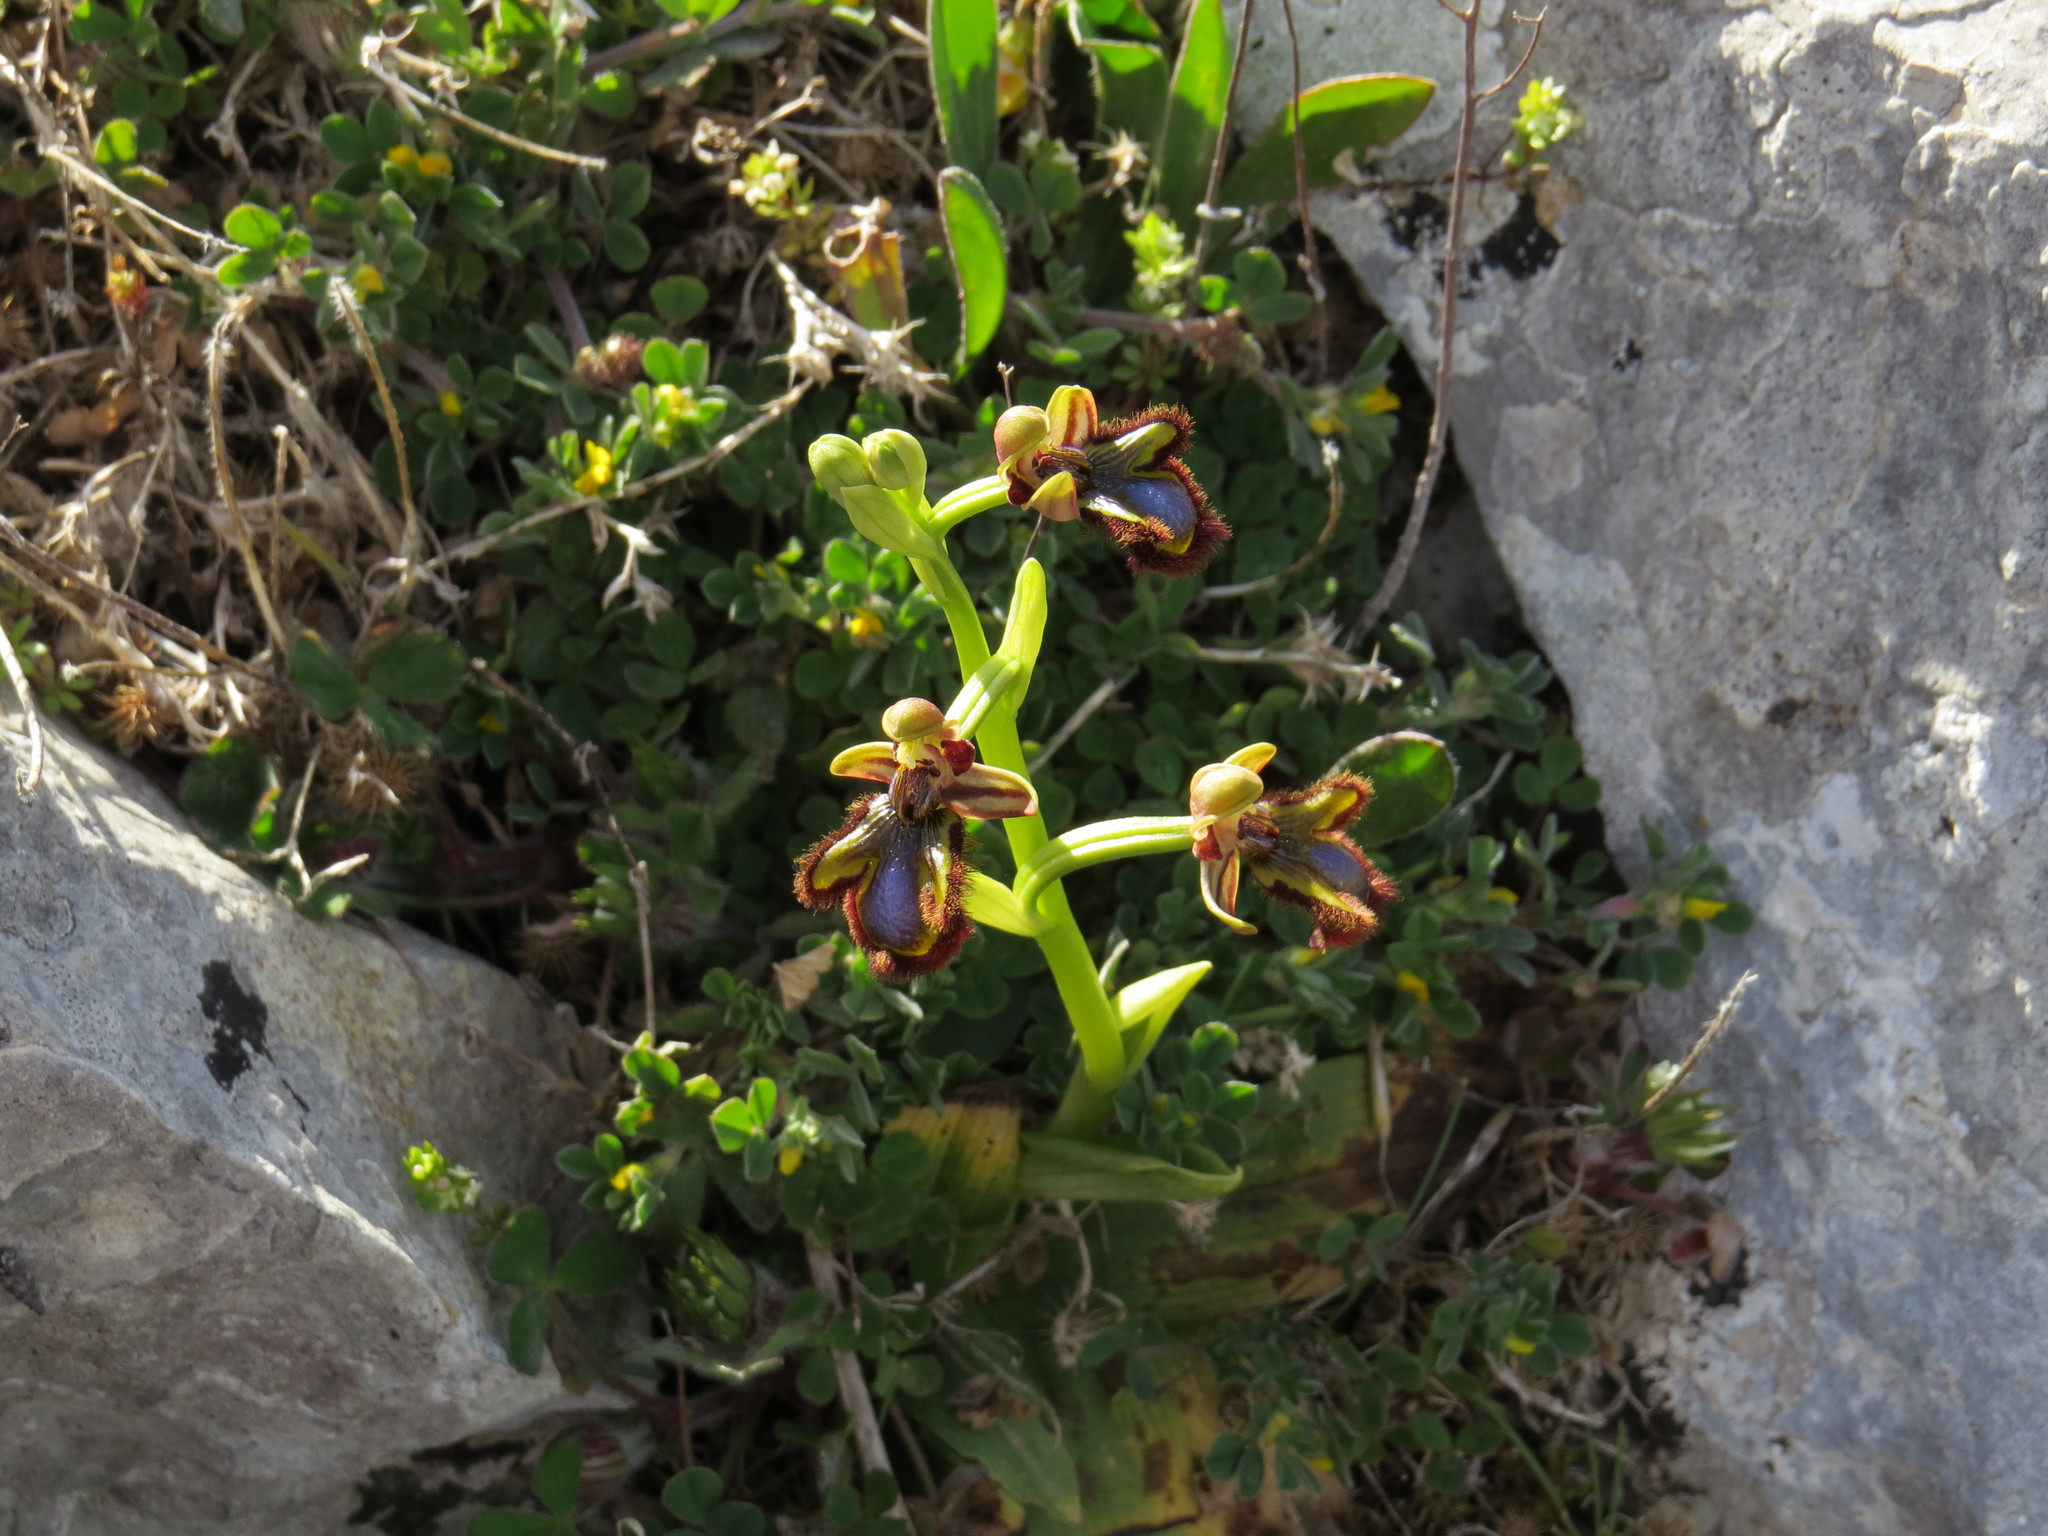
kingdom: Plantae
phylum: Tracheophyta
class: Liliopsida
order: Asparagales
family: Orchidaceae
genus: Ophrys
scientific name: Ophrys speculum
